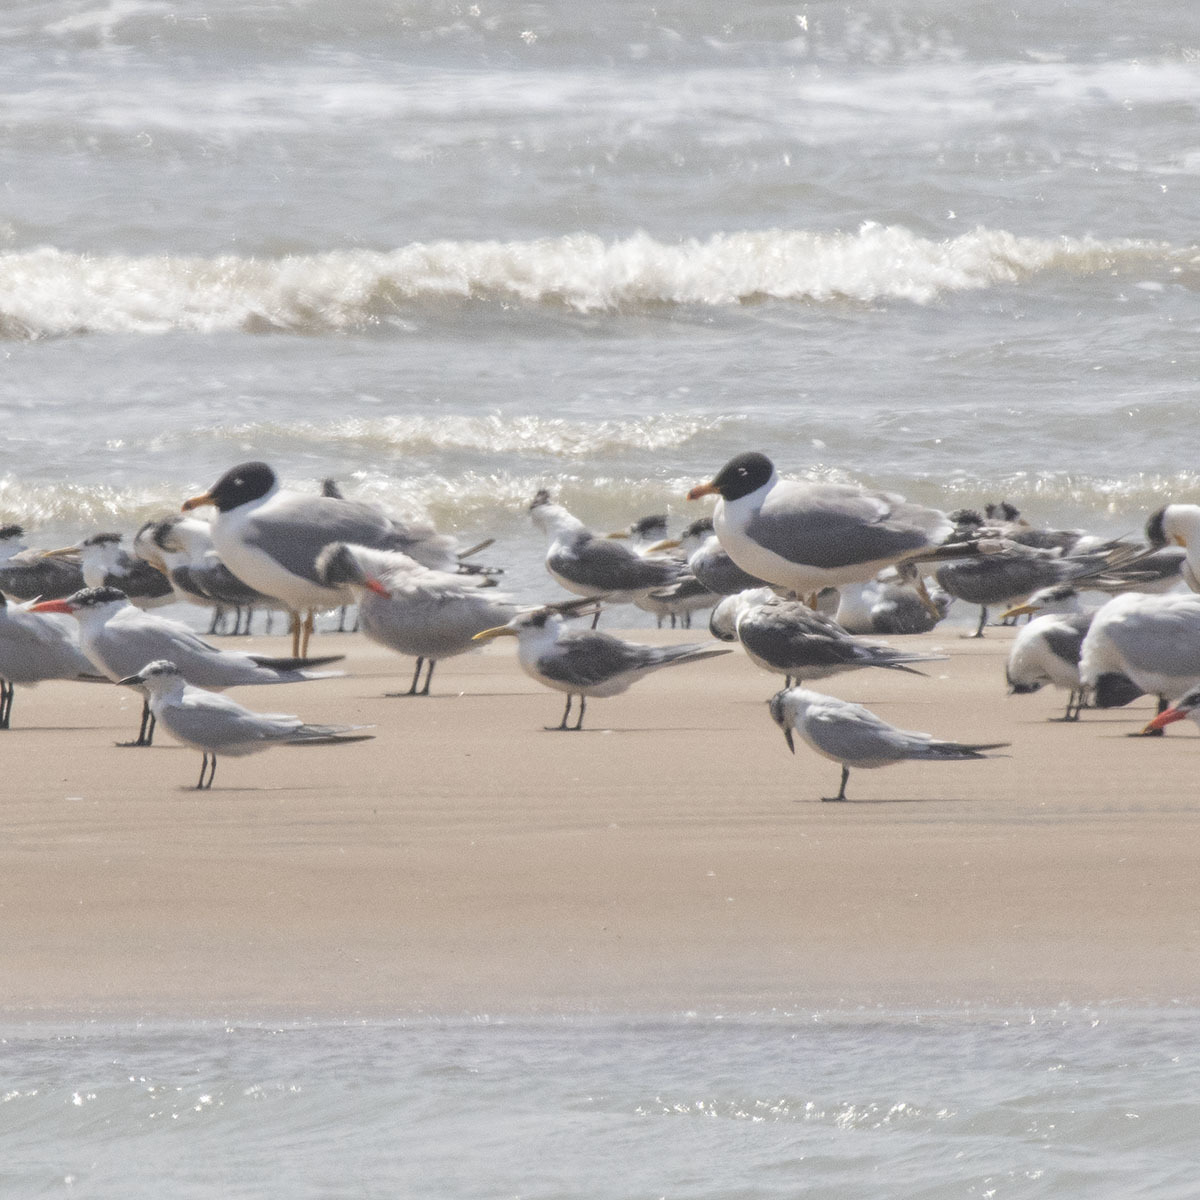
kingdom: Animalia
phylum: Chordata
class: Aves
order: Charadriiformes
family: Laridae
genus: Thalasseus
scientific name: Thalasseus bergii
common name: Greater crested tern
